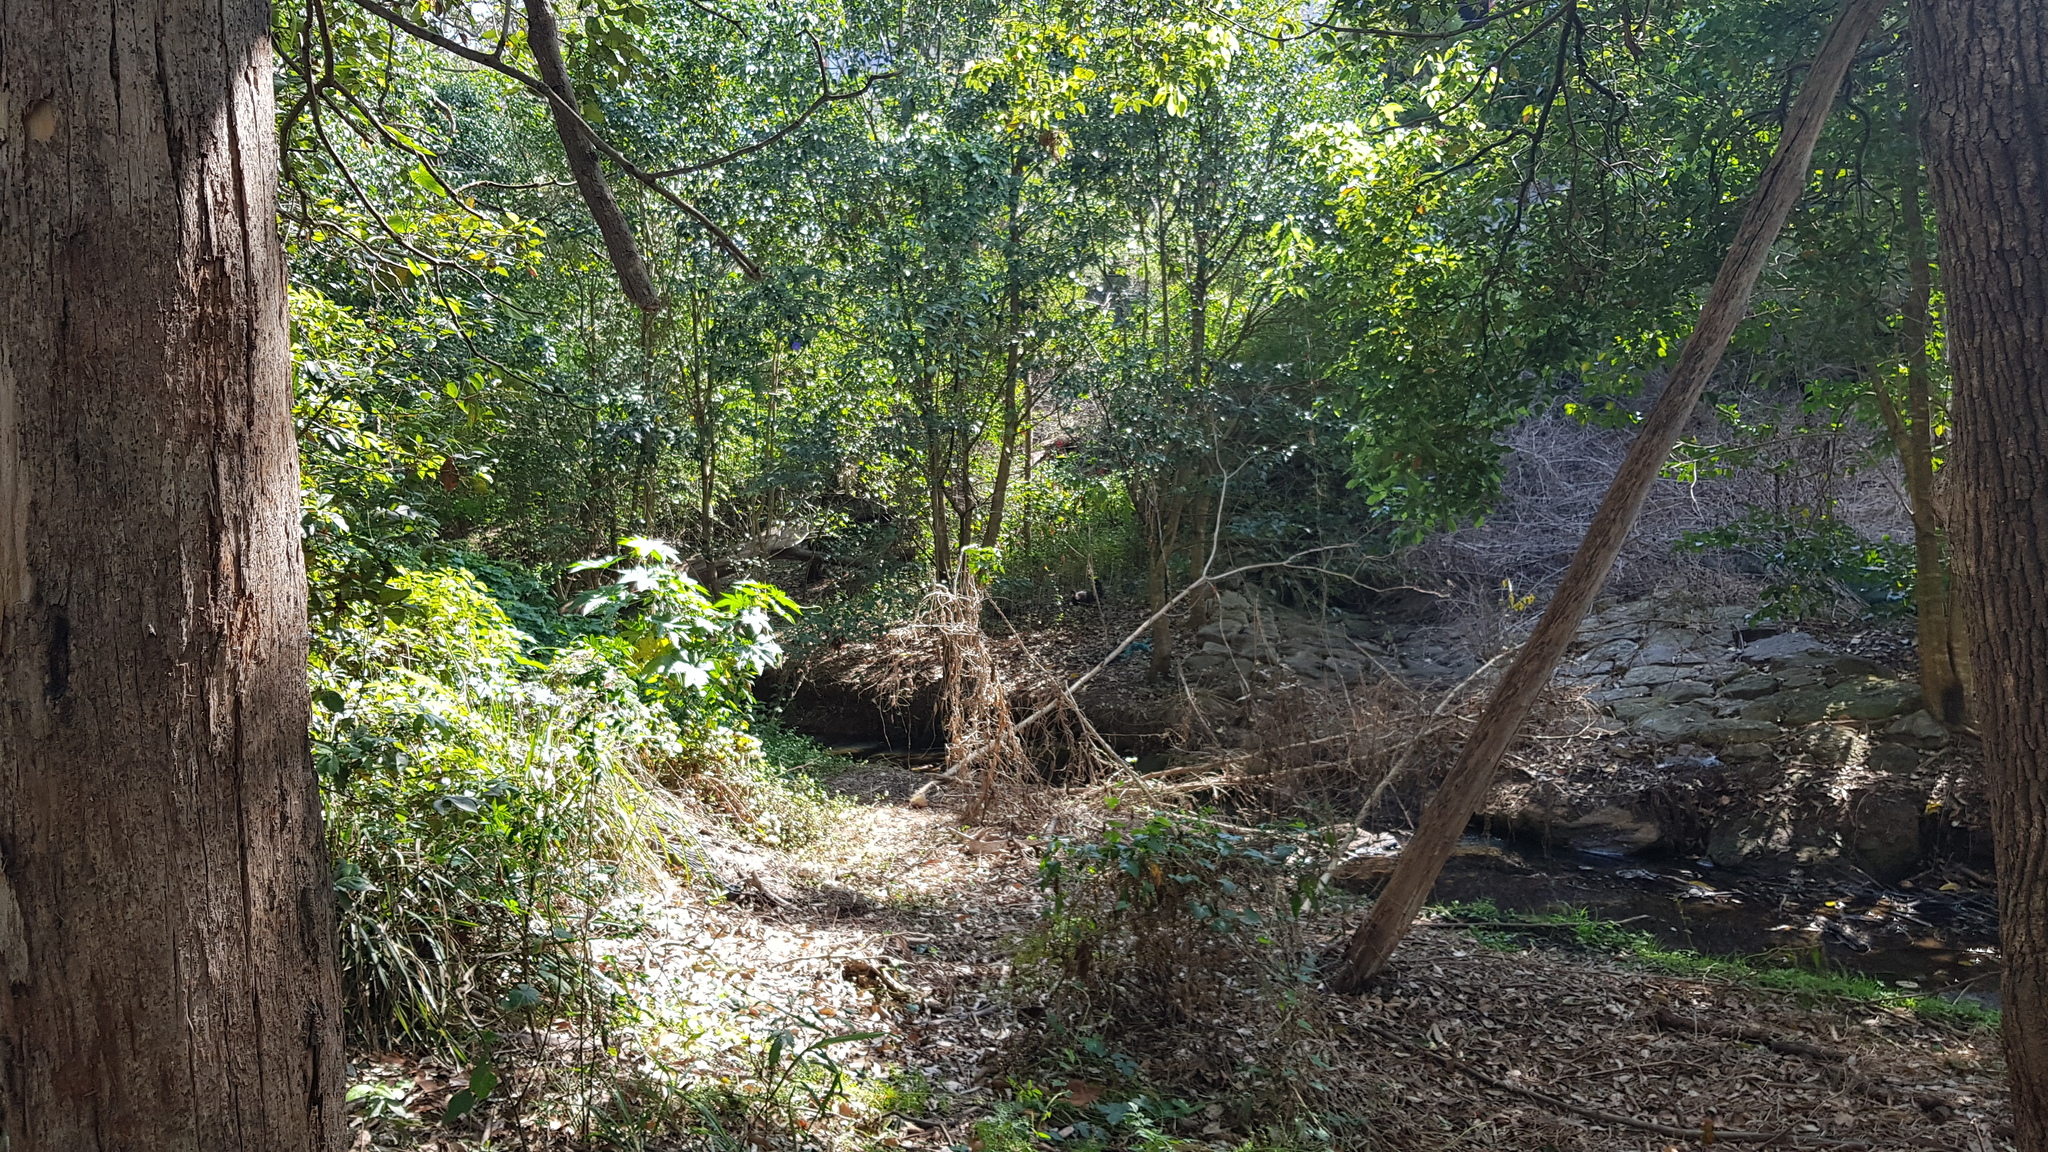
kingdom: Animalia
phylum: Chordata
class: Aves
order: Galliformes
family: Megapodiidae
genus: Alectura
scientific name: Alectura lathami
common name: Australian brushturkey
